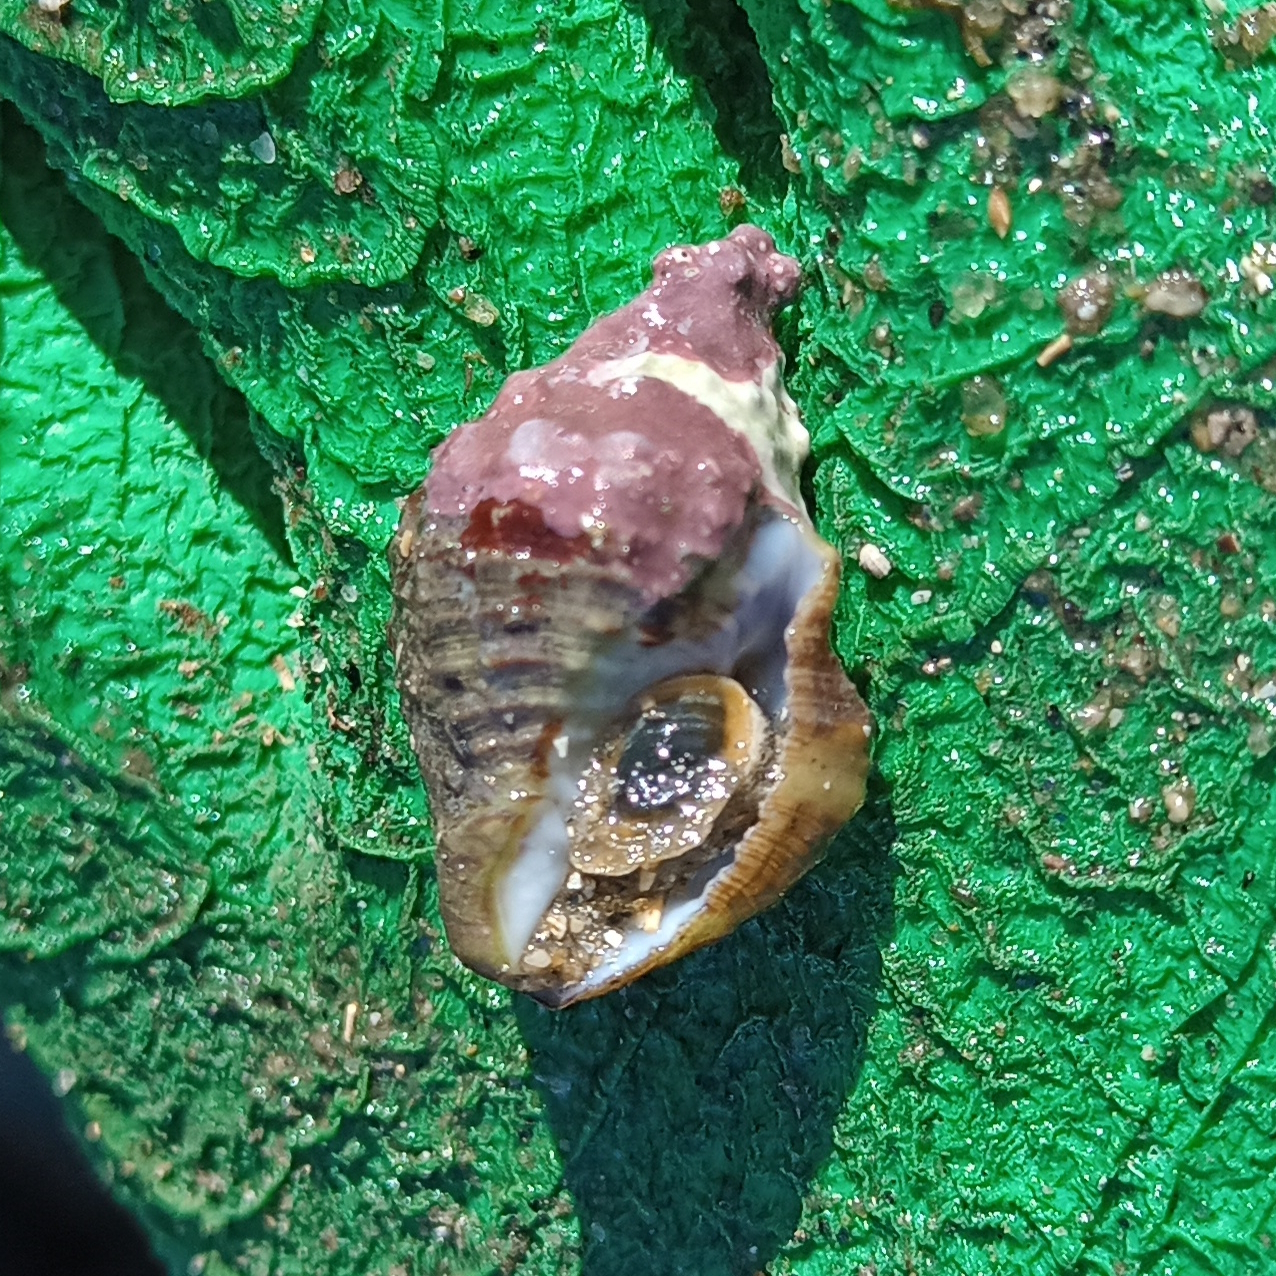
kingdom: Animalia
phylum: Mollusca
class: Gastropoda
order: Neogastropoda
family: Pisaniidae
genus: Gemophos
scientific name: Gemophos auritulus
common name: Gaudy cantharus
